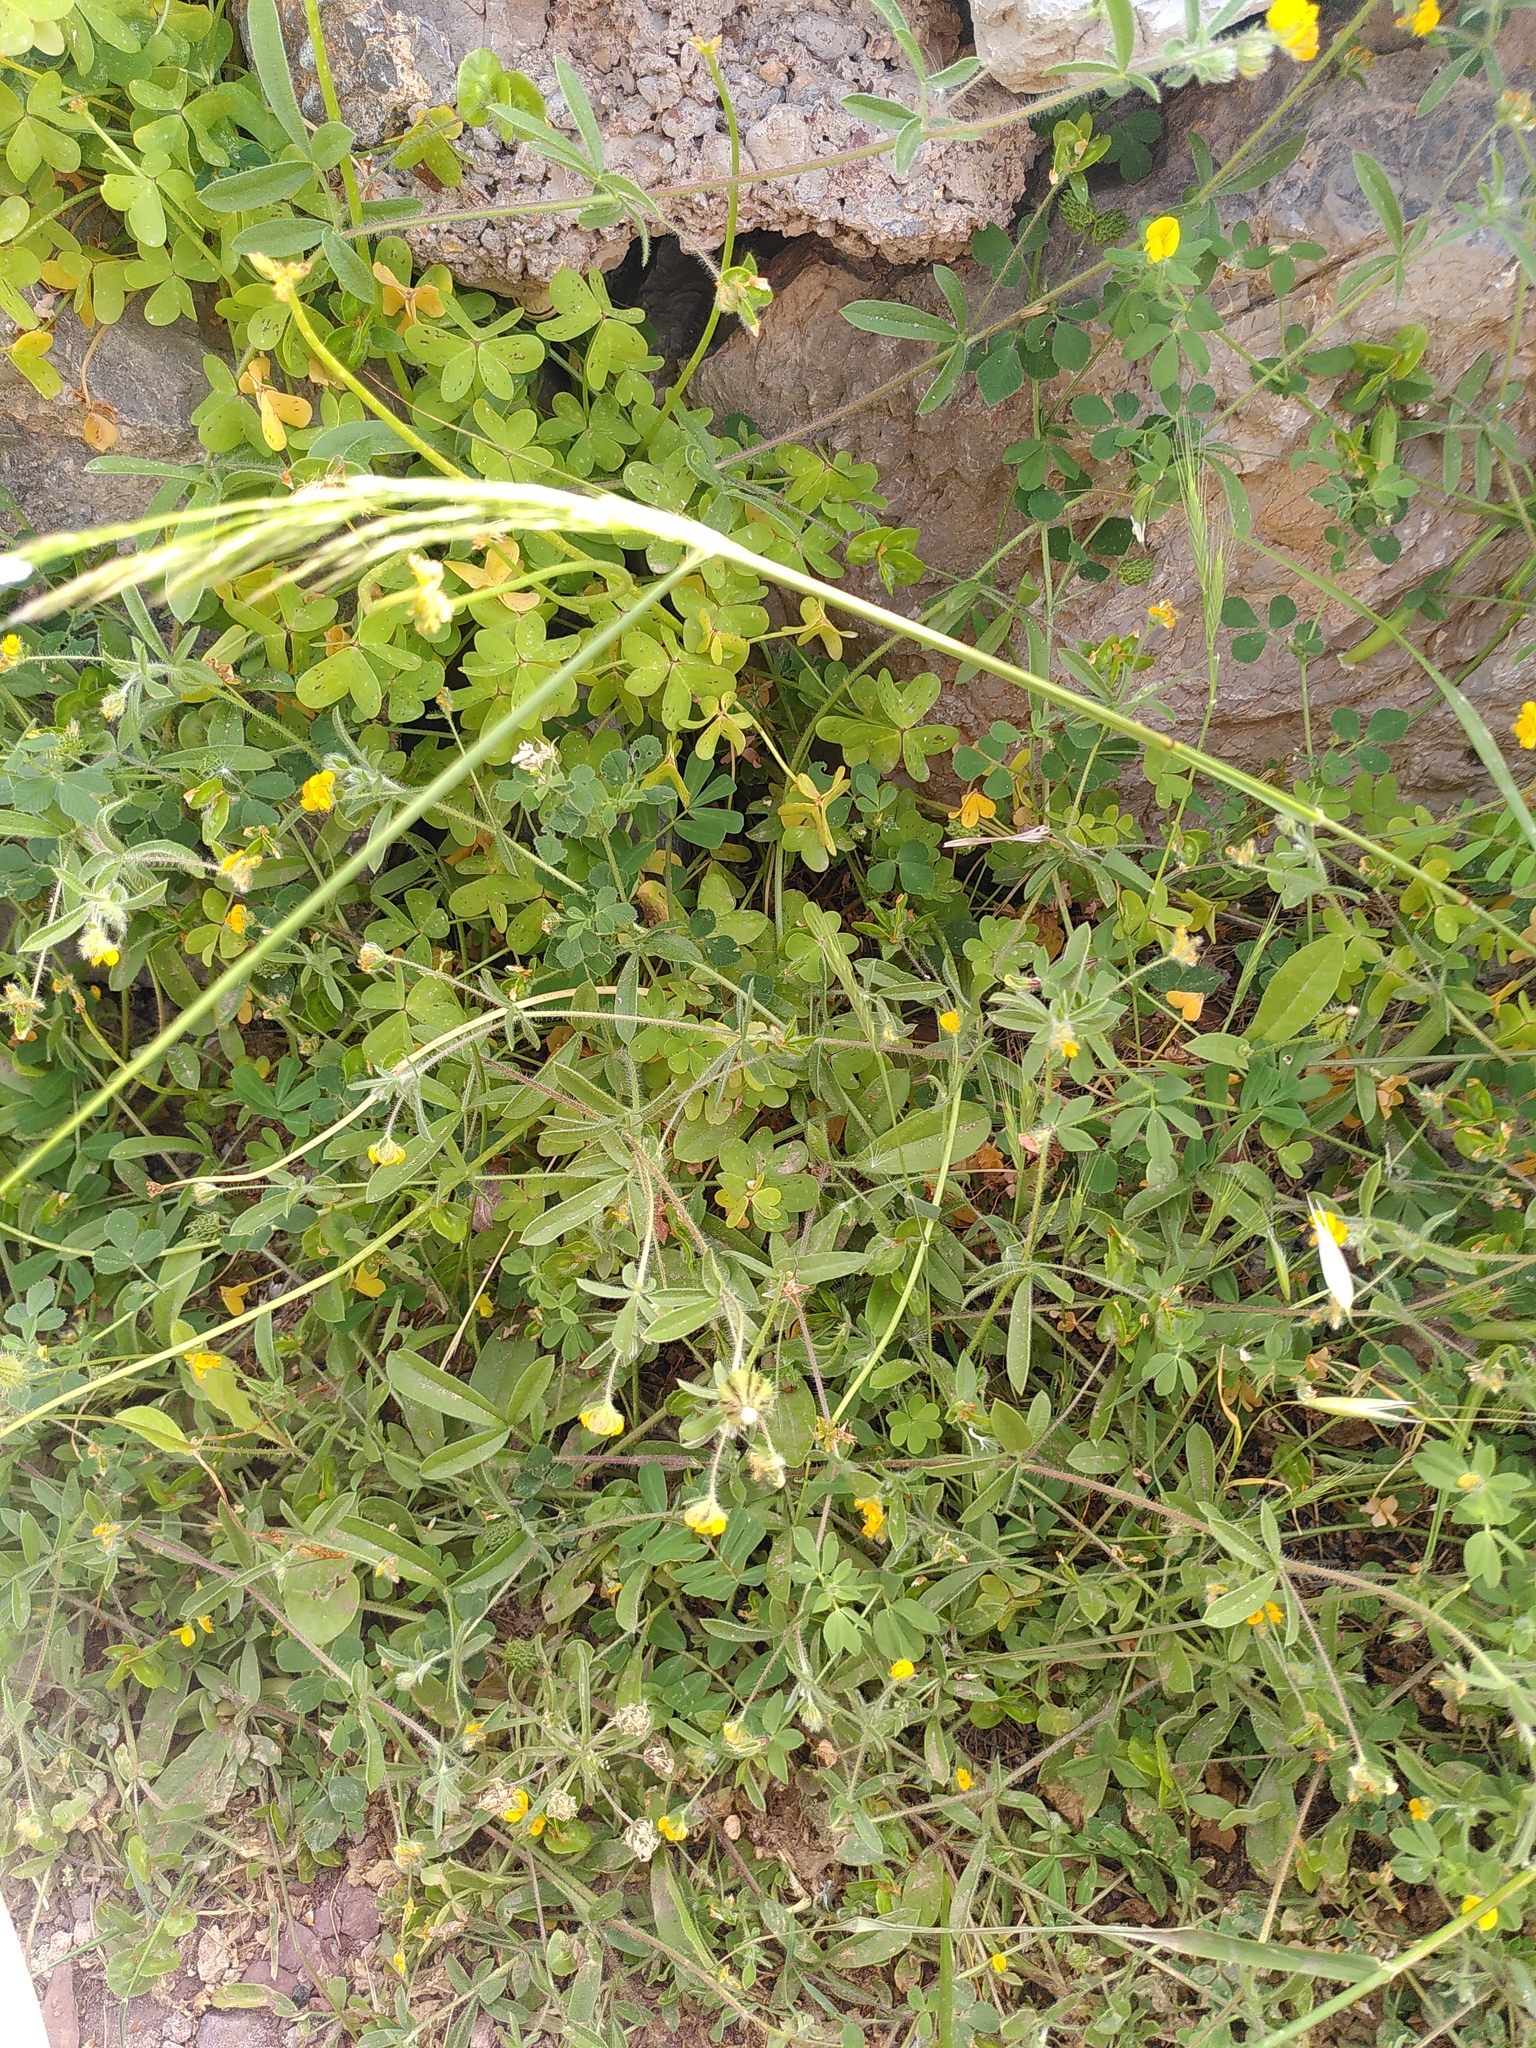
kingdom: Plantae
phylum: Tracheophyta
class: Magnoliopsida
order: Fabales
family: Fabaceae
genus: Anthyllis
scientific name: Anthyllis circinnata
